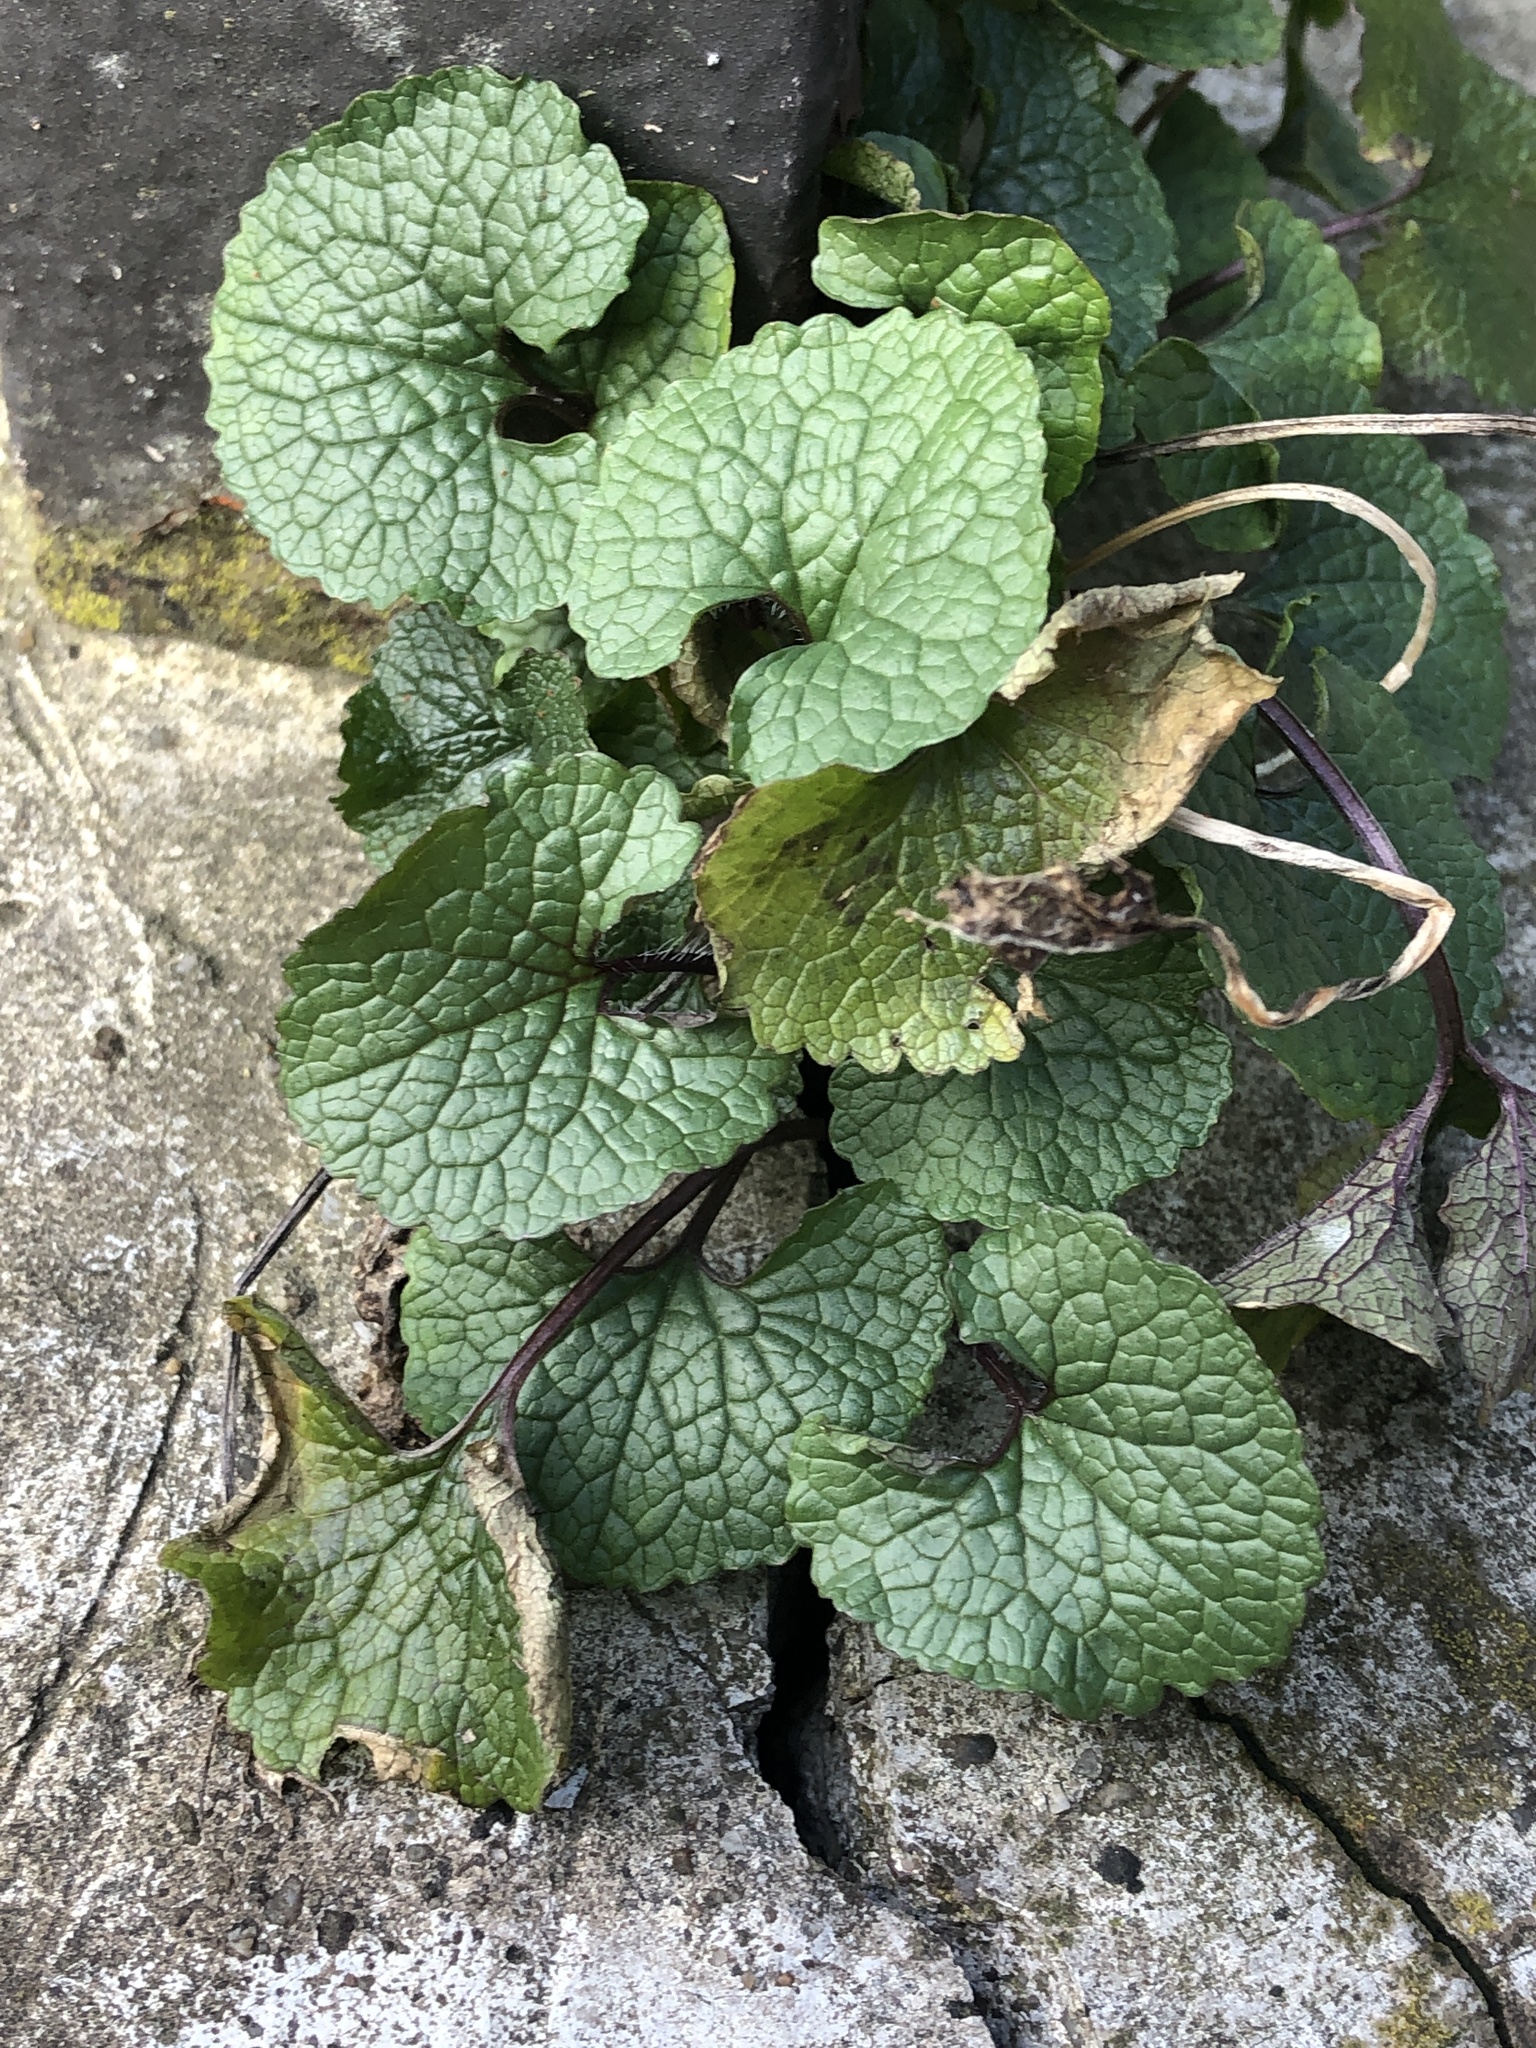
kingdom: Plantae
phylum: Tracheophyta
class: Magnoliopsida
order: Brassicales
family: Brassicaceae
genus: Alliaria
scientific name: Alliaria petiolata
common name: Garlic mustard
